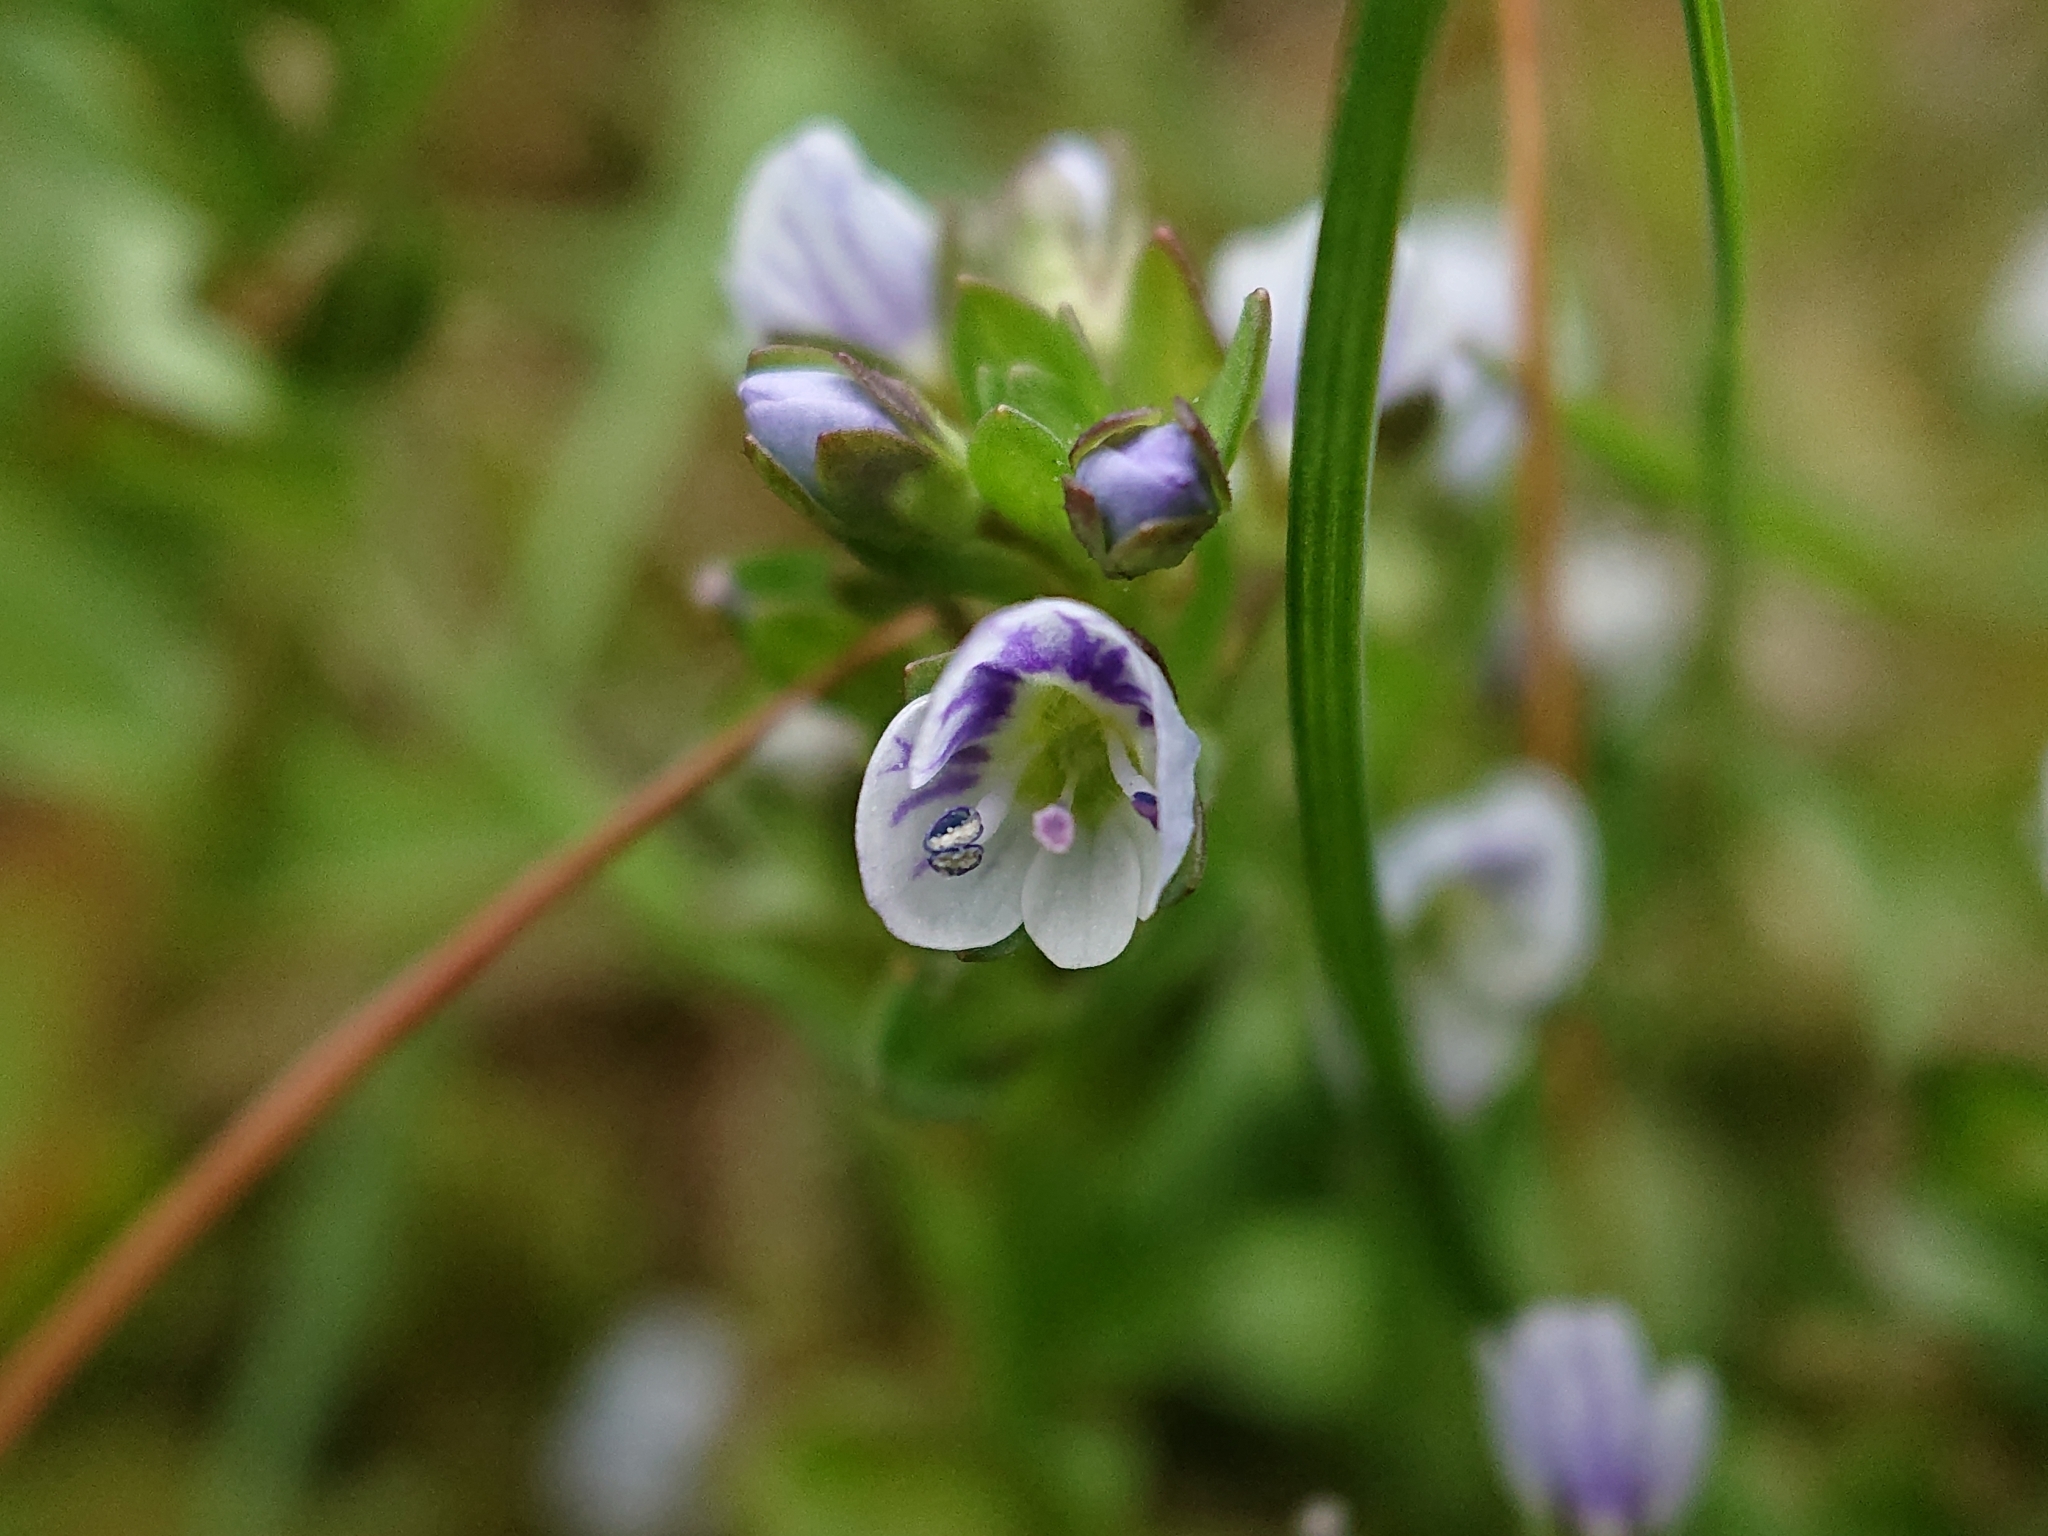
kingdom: Plantae
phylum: Tracheophyta
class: Magnoliopsida
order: Lamiales
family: Plantaginaceae
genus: Veronica
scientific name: Veronica serpyllifolia
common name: Thyme-leaved speedwell
